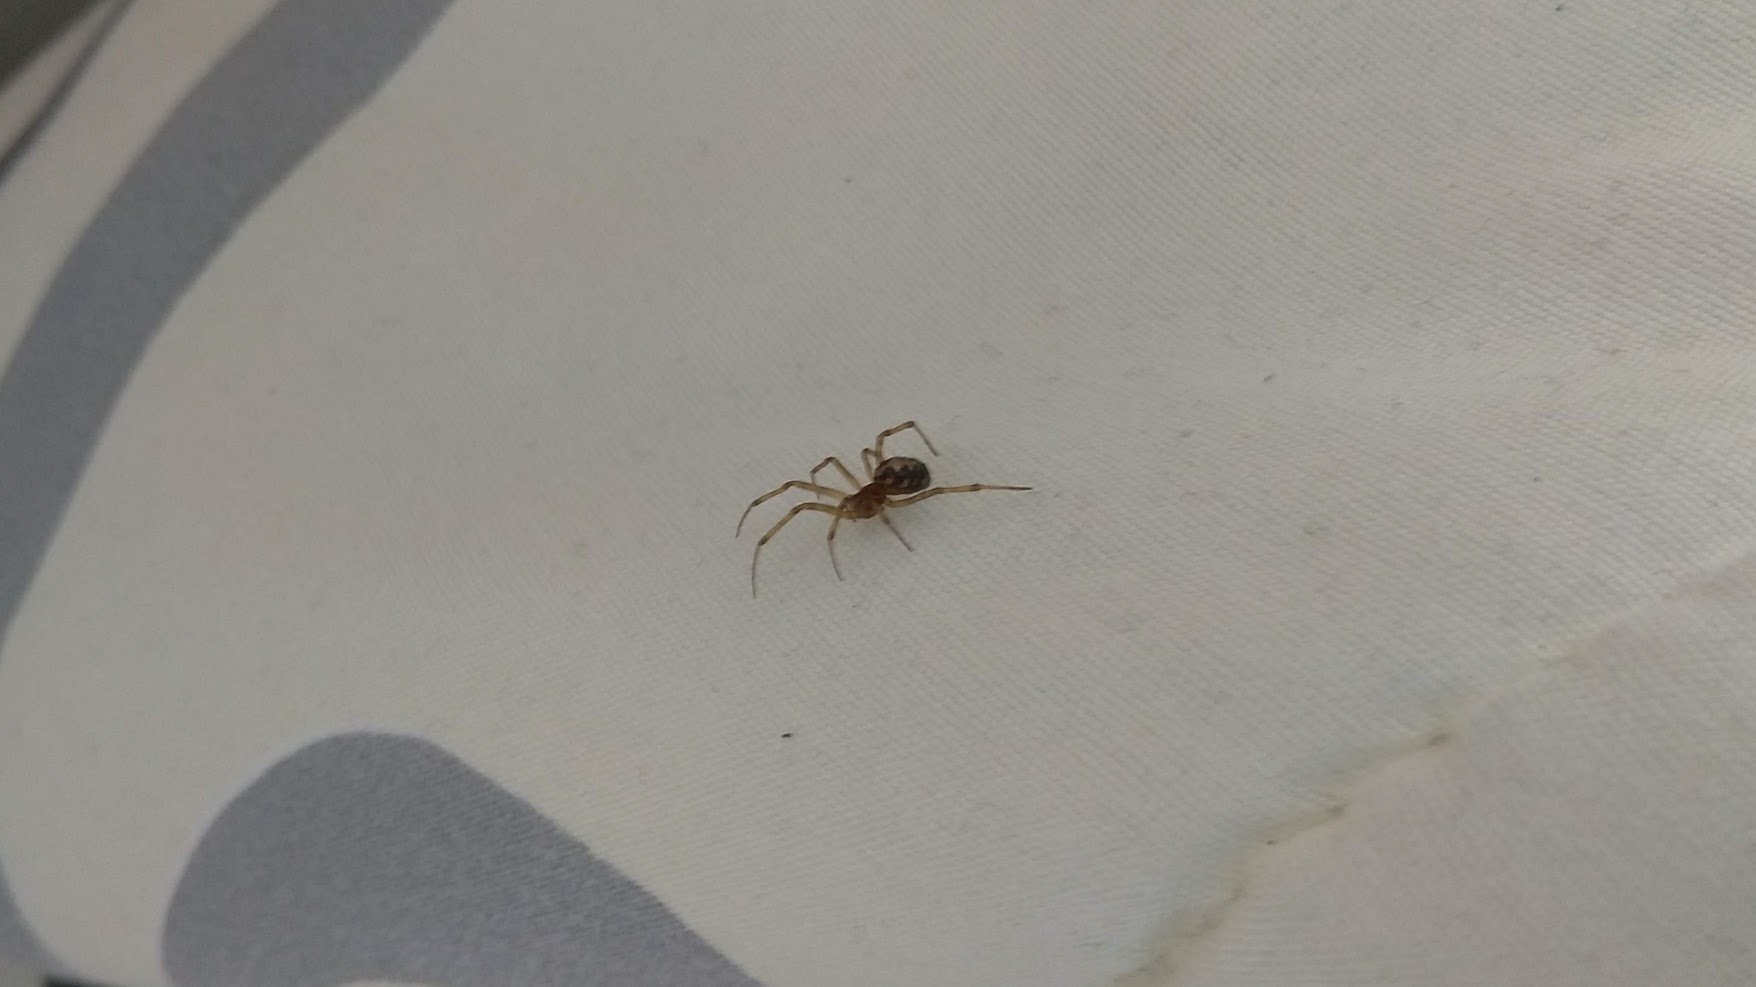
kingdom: Animalia
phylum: Arthropoda
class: Arachnida
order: Araneae
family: Theridiidae
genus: Steatoda
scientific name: Steatoda triangulosa
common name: Triangulate bud spider
